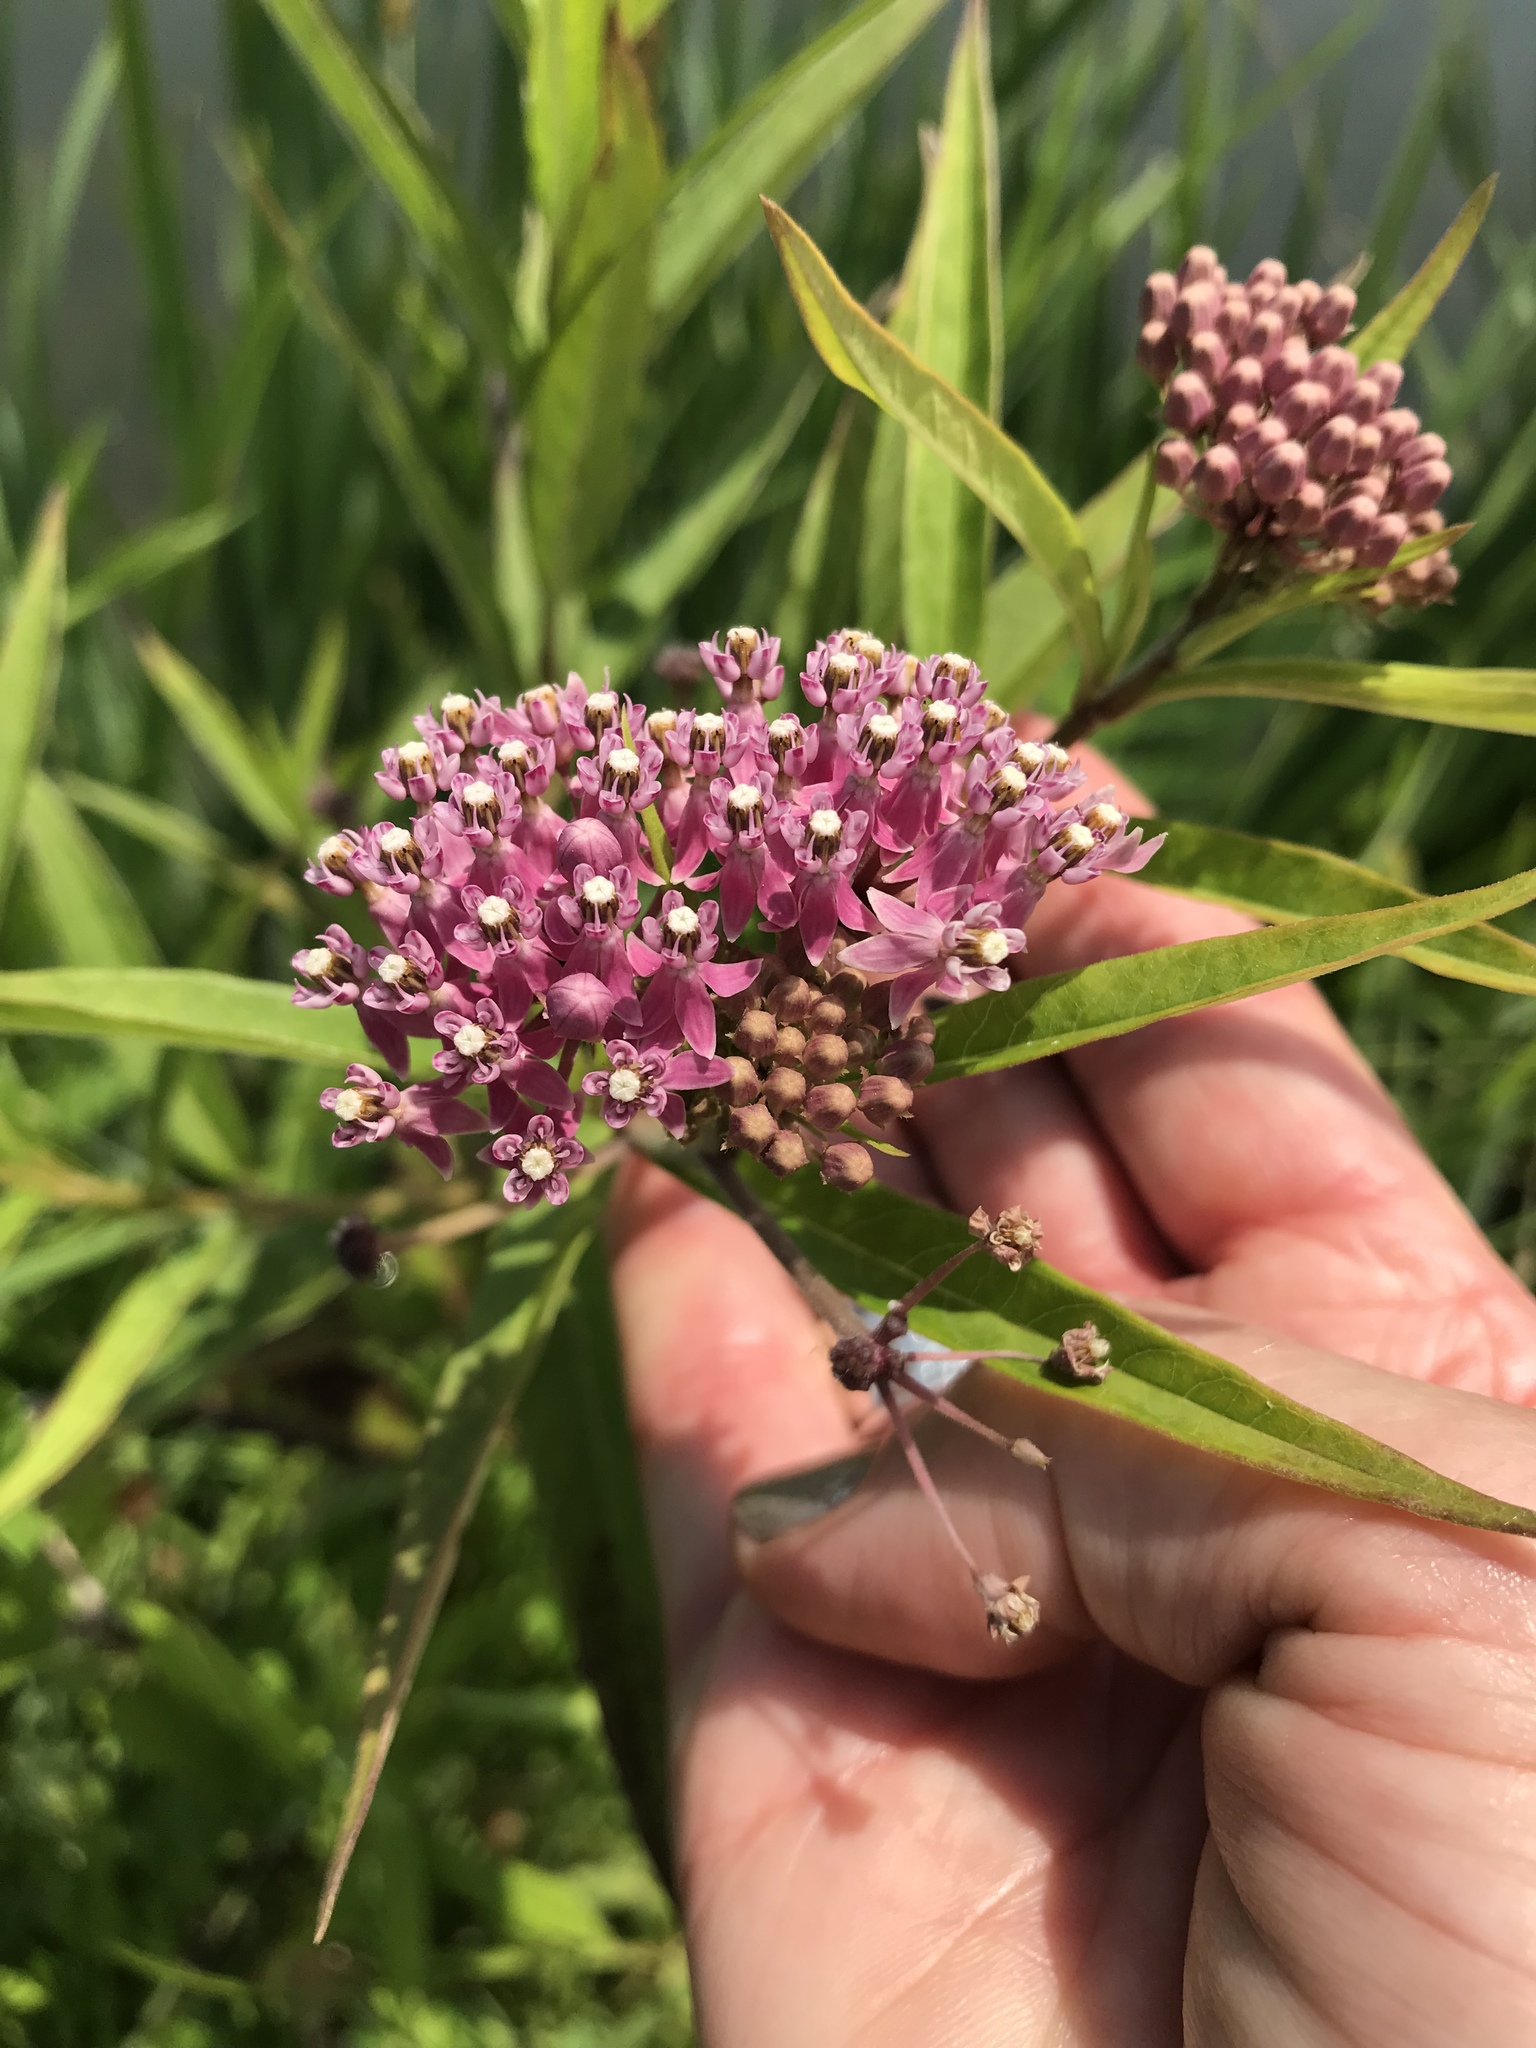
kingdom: Plantae
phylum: Tracheophyta
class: Magnoliopsida
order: Gentianales
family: Apocynaceae
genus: Asclepias
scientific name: Asclepias incarnata
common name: Swamp milkweed
